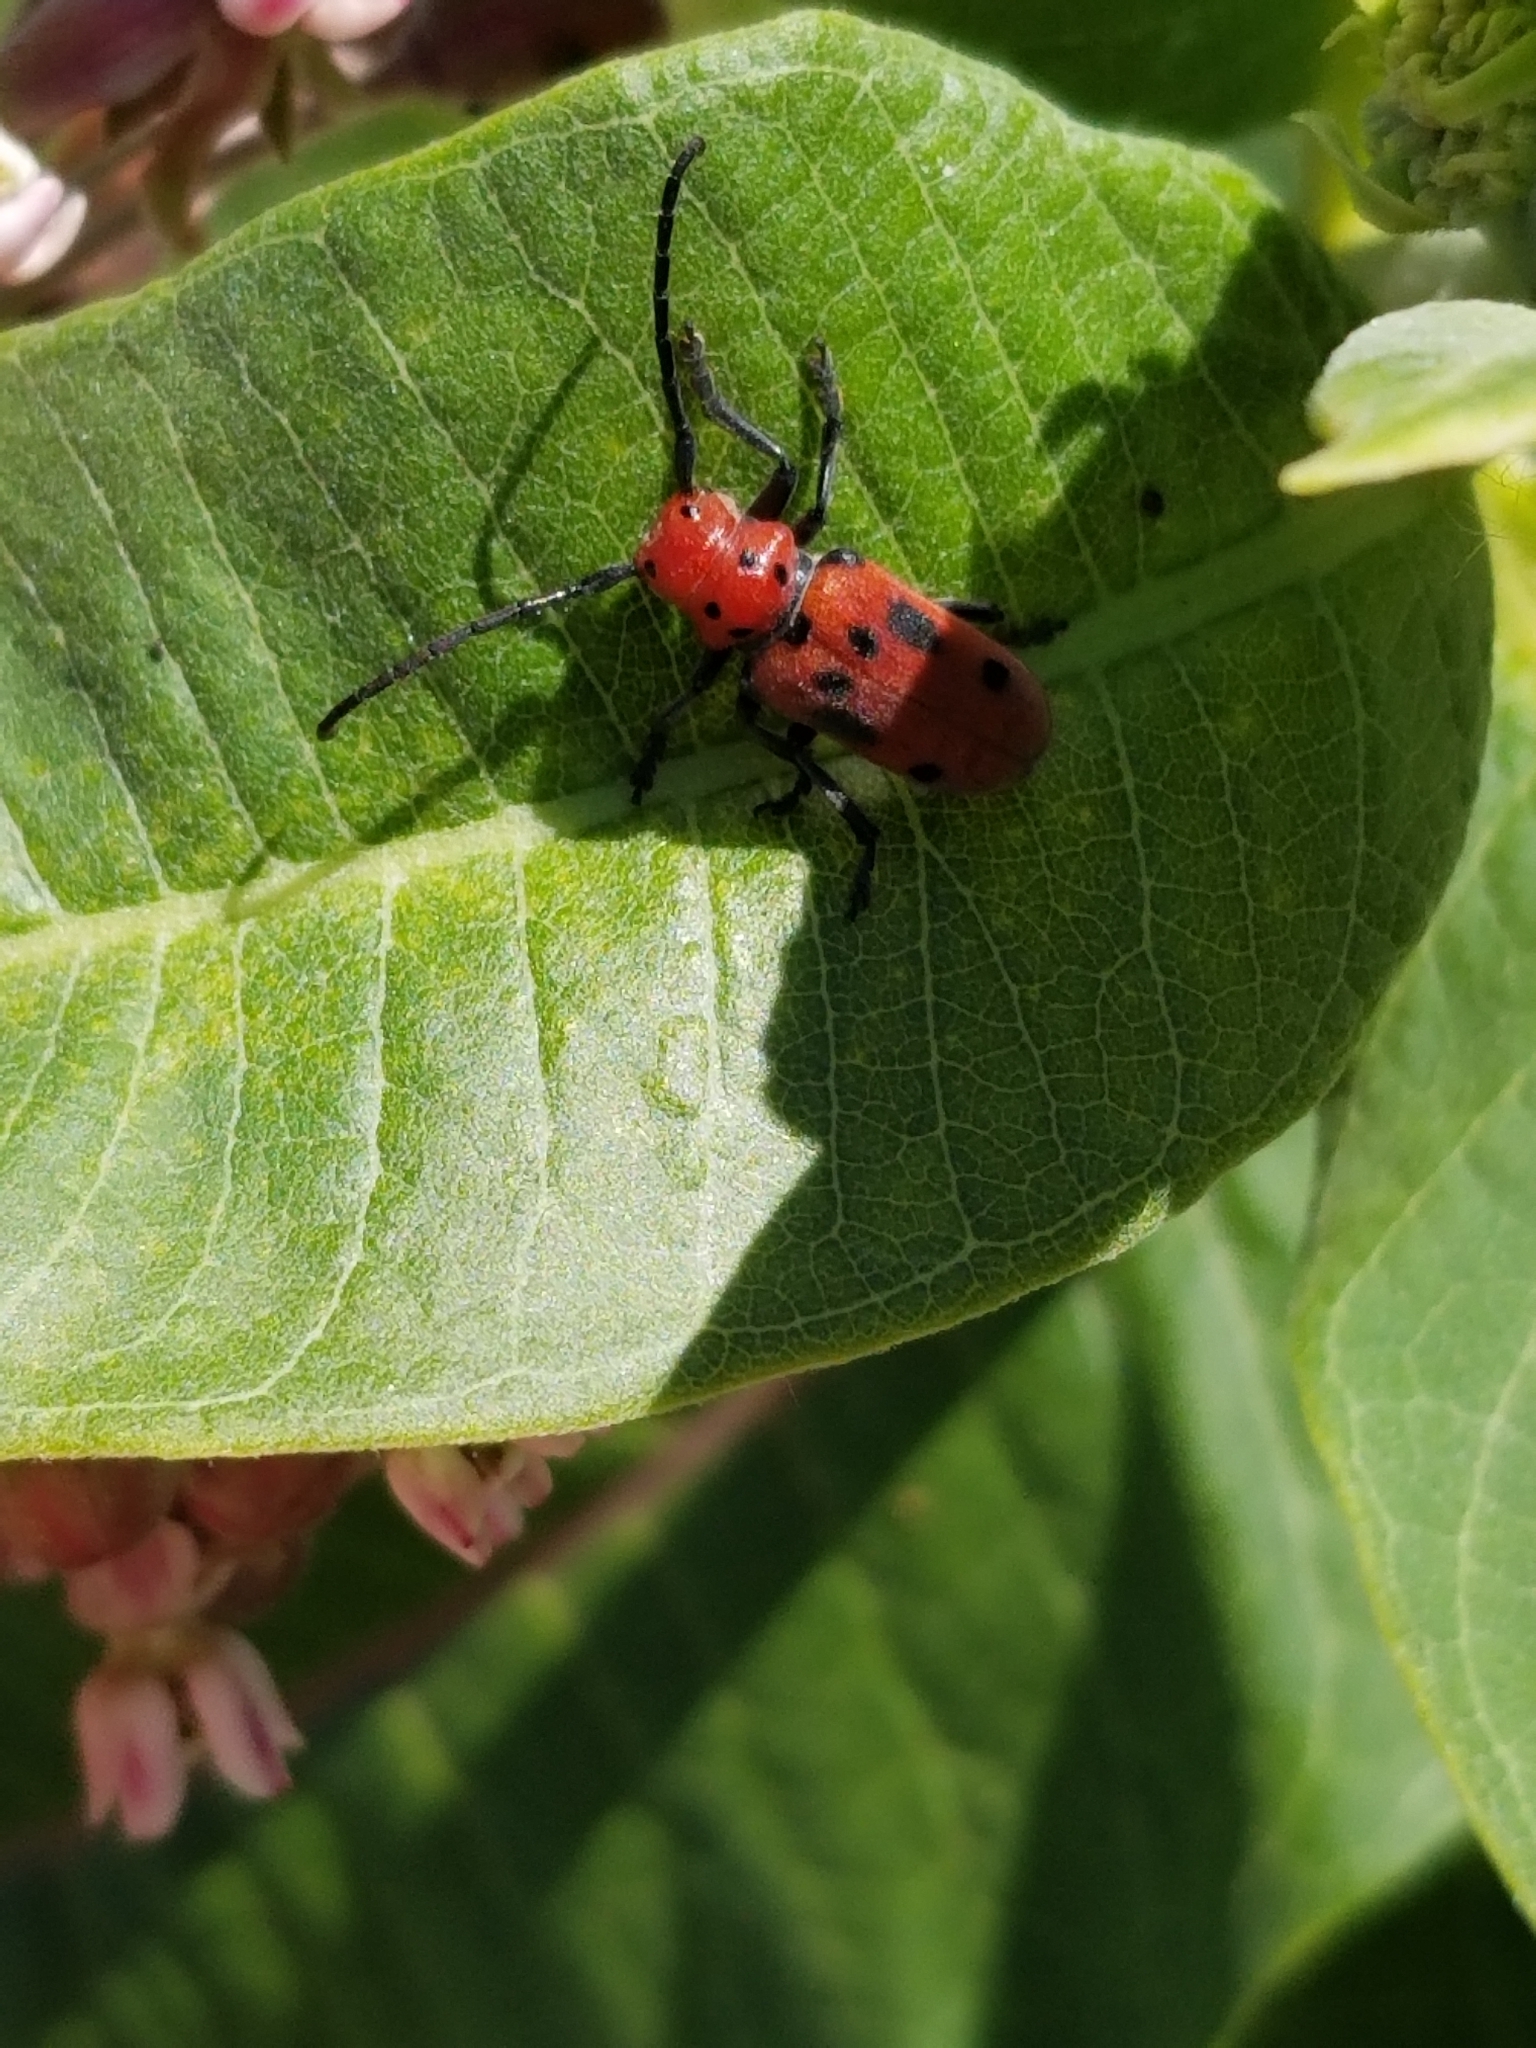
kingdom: Animalia
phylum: Arthropoda
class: Insecta
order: Coleoptera
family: Cerambycidae
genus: Tetraopes
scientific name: Tetraopes tetrophthalmus
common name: Red milkweed beetle
